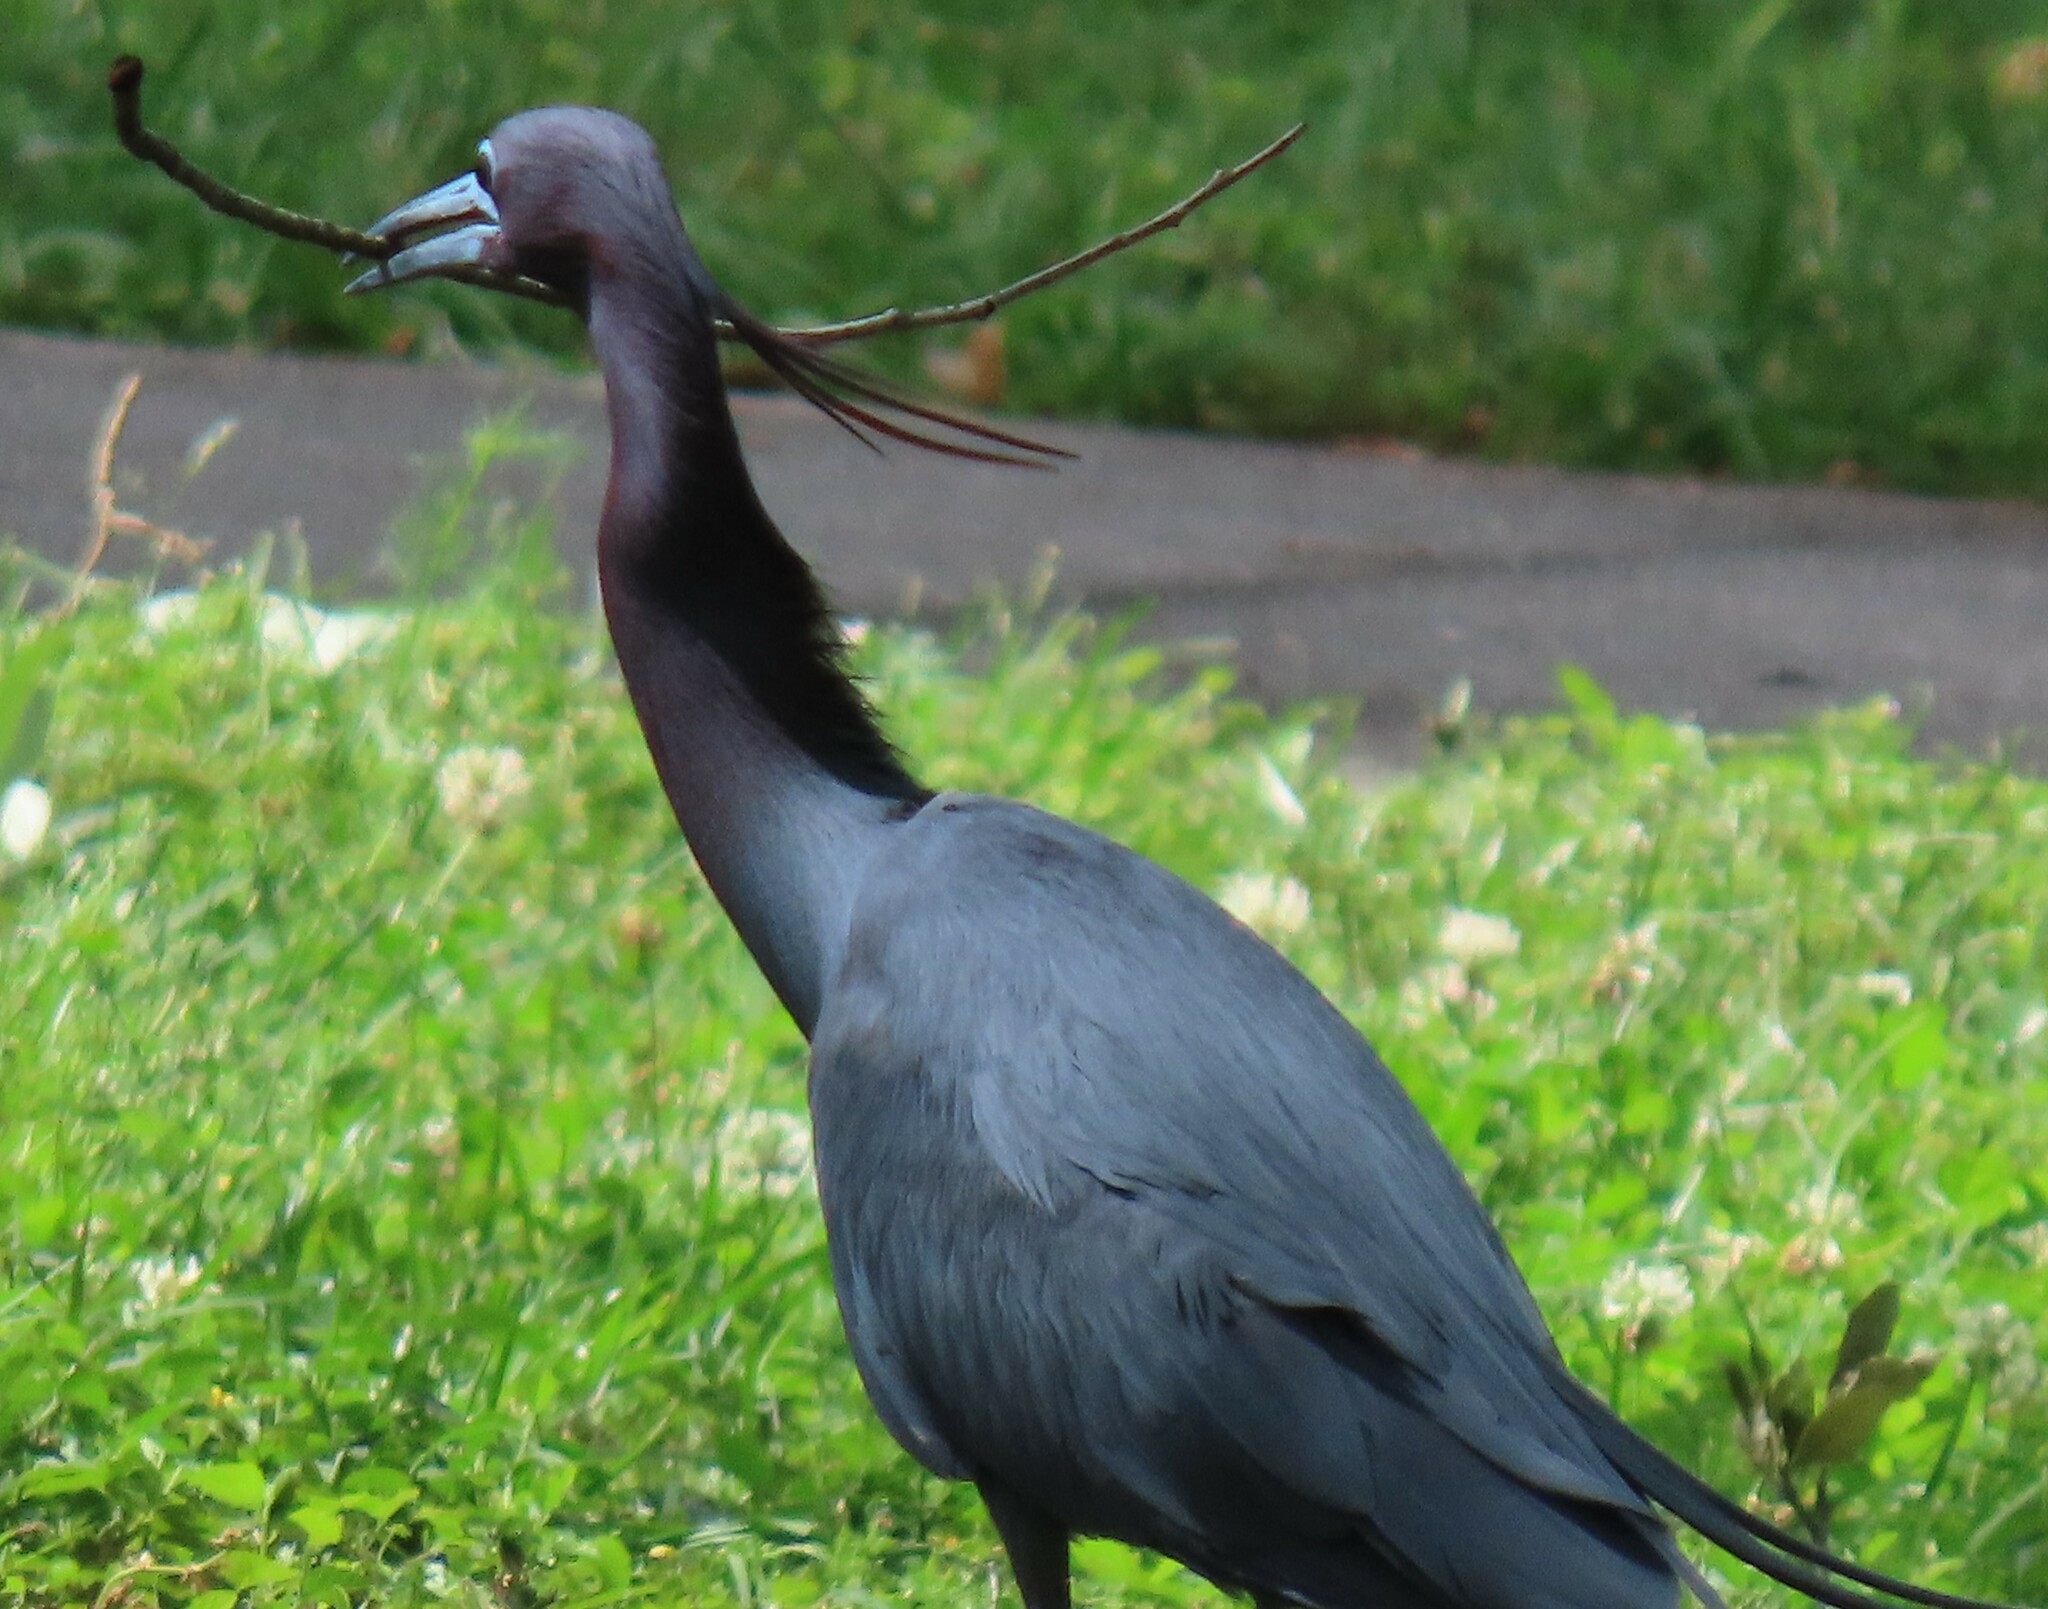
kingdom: Animalia
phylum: Chordata
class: Aves
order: Pelecaniformes
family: Ardeidae
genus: Egretta
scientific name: Egretta caerulea
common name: Little blue heron
